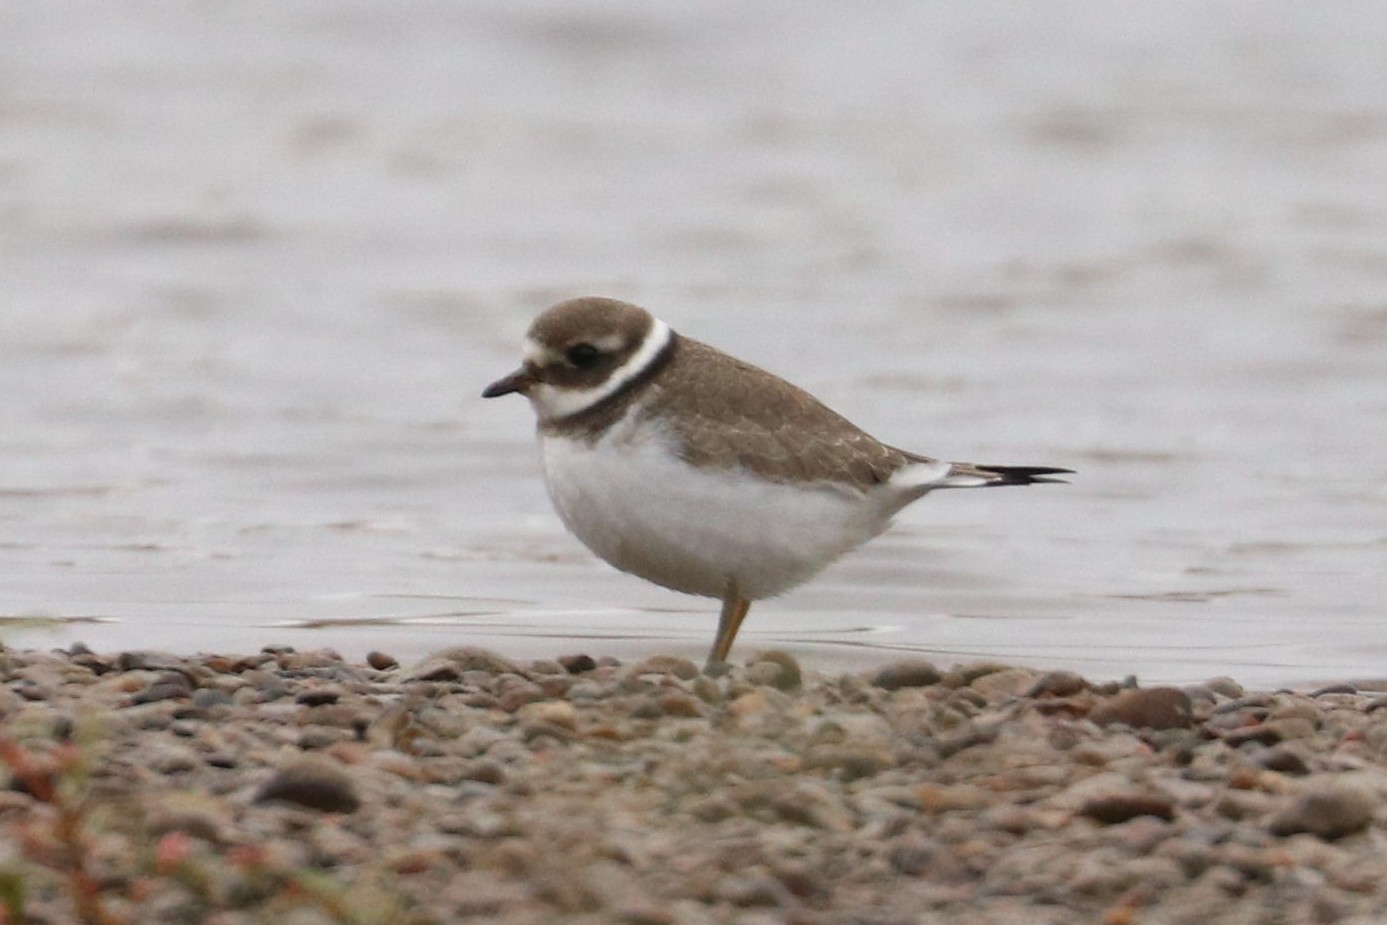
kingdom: Animalia
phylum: Chordata
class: Aves
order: Charadriiformes
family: Charadriidae
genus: Charadrius
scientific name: Charadrius hiaticula
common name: Common ringed plover
